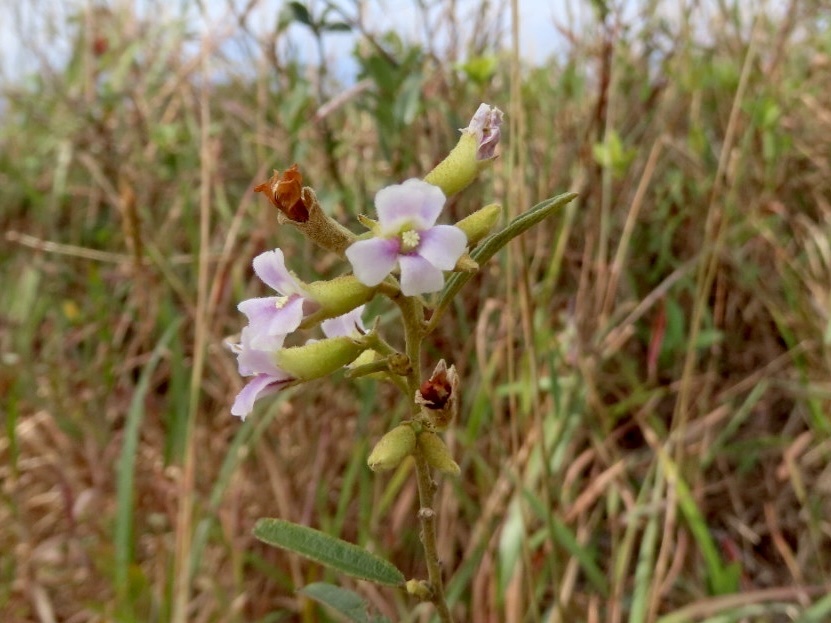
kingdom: Plantae
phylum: Tracheophyta
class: Magnoliopsida
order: Malvales
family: Malvaceae
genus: Helicteres
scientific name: Helicteres angustifolia
